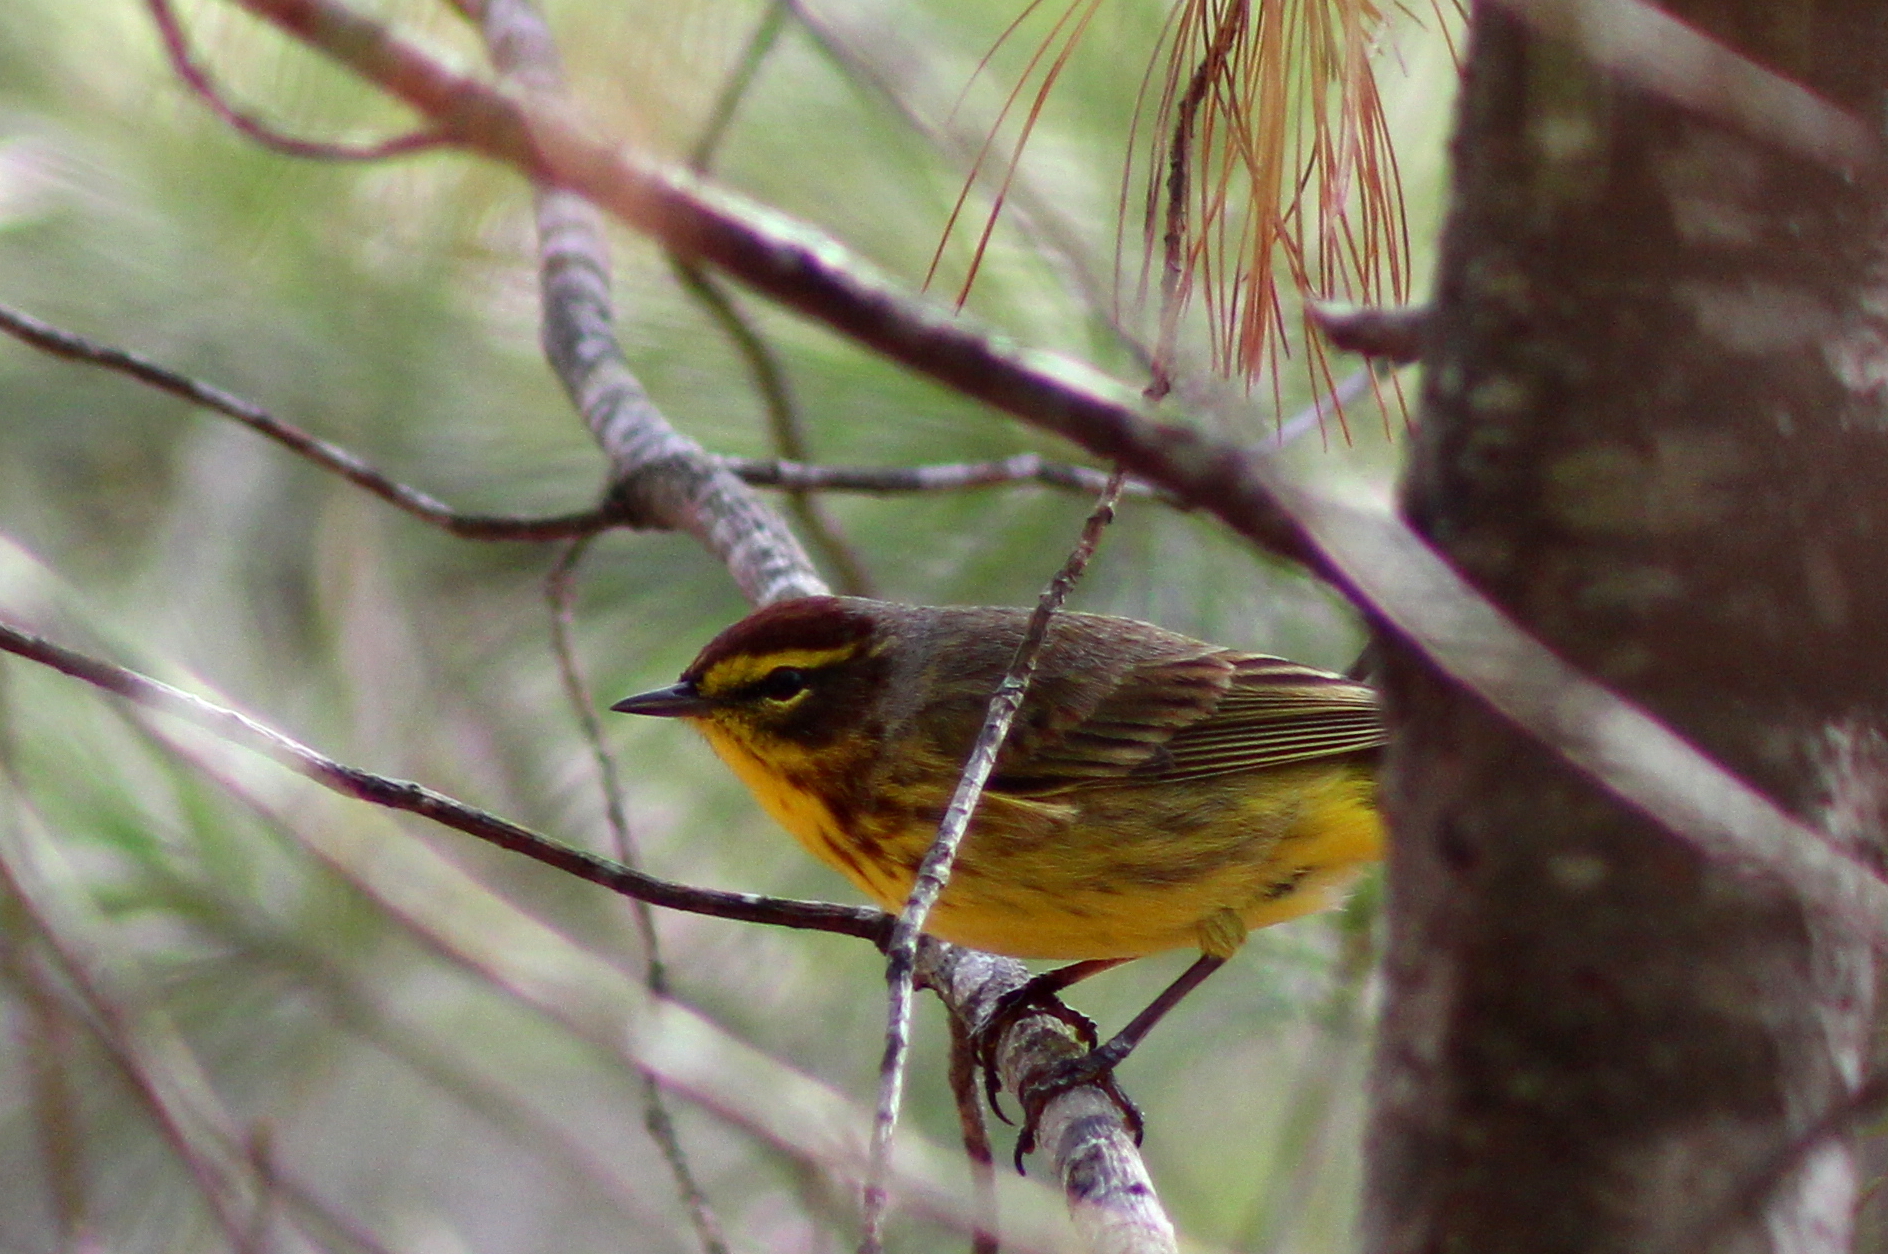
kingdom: Animalia
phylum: Chordata
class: Aves
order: Passeriformes
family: Parulidae
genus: Setophaga
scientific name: Setophaga palmarum
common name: Palm warbler
